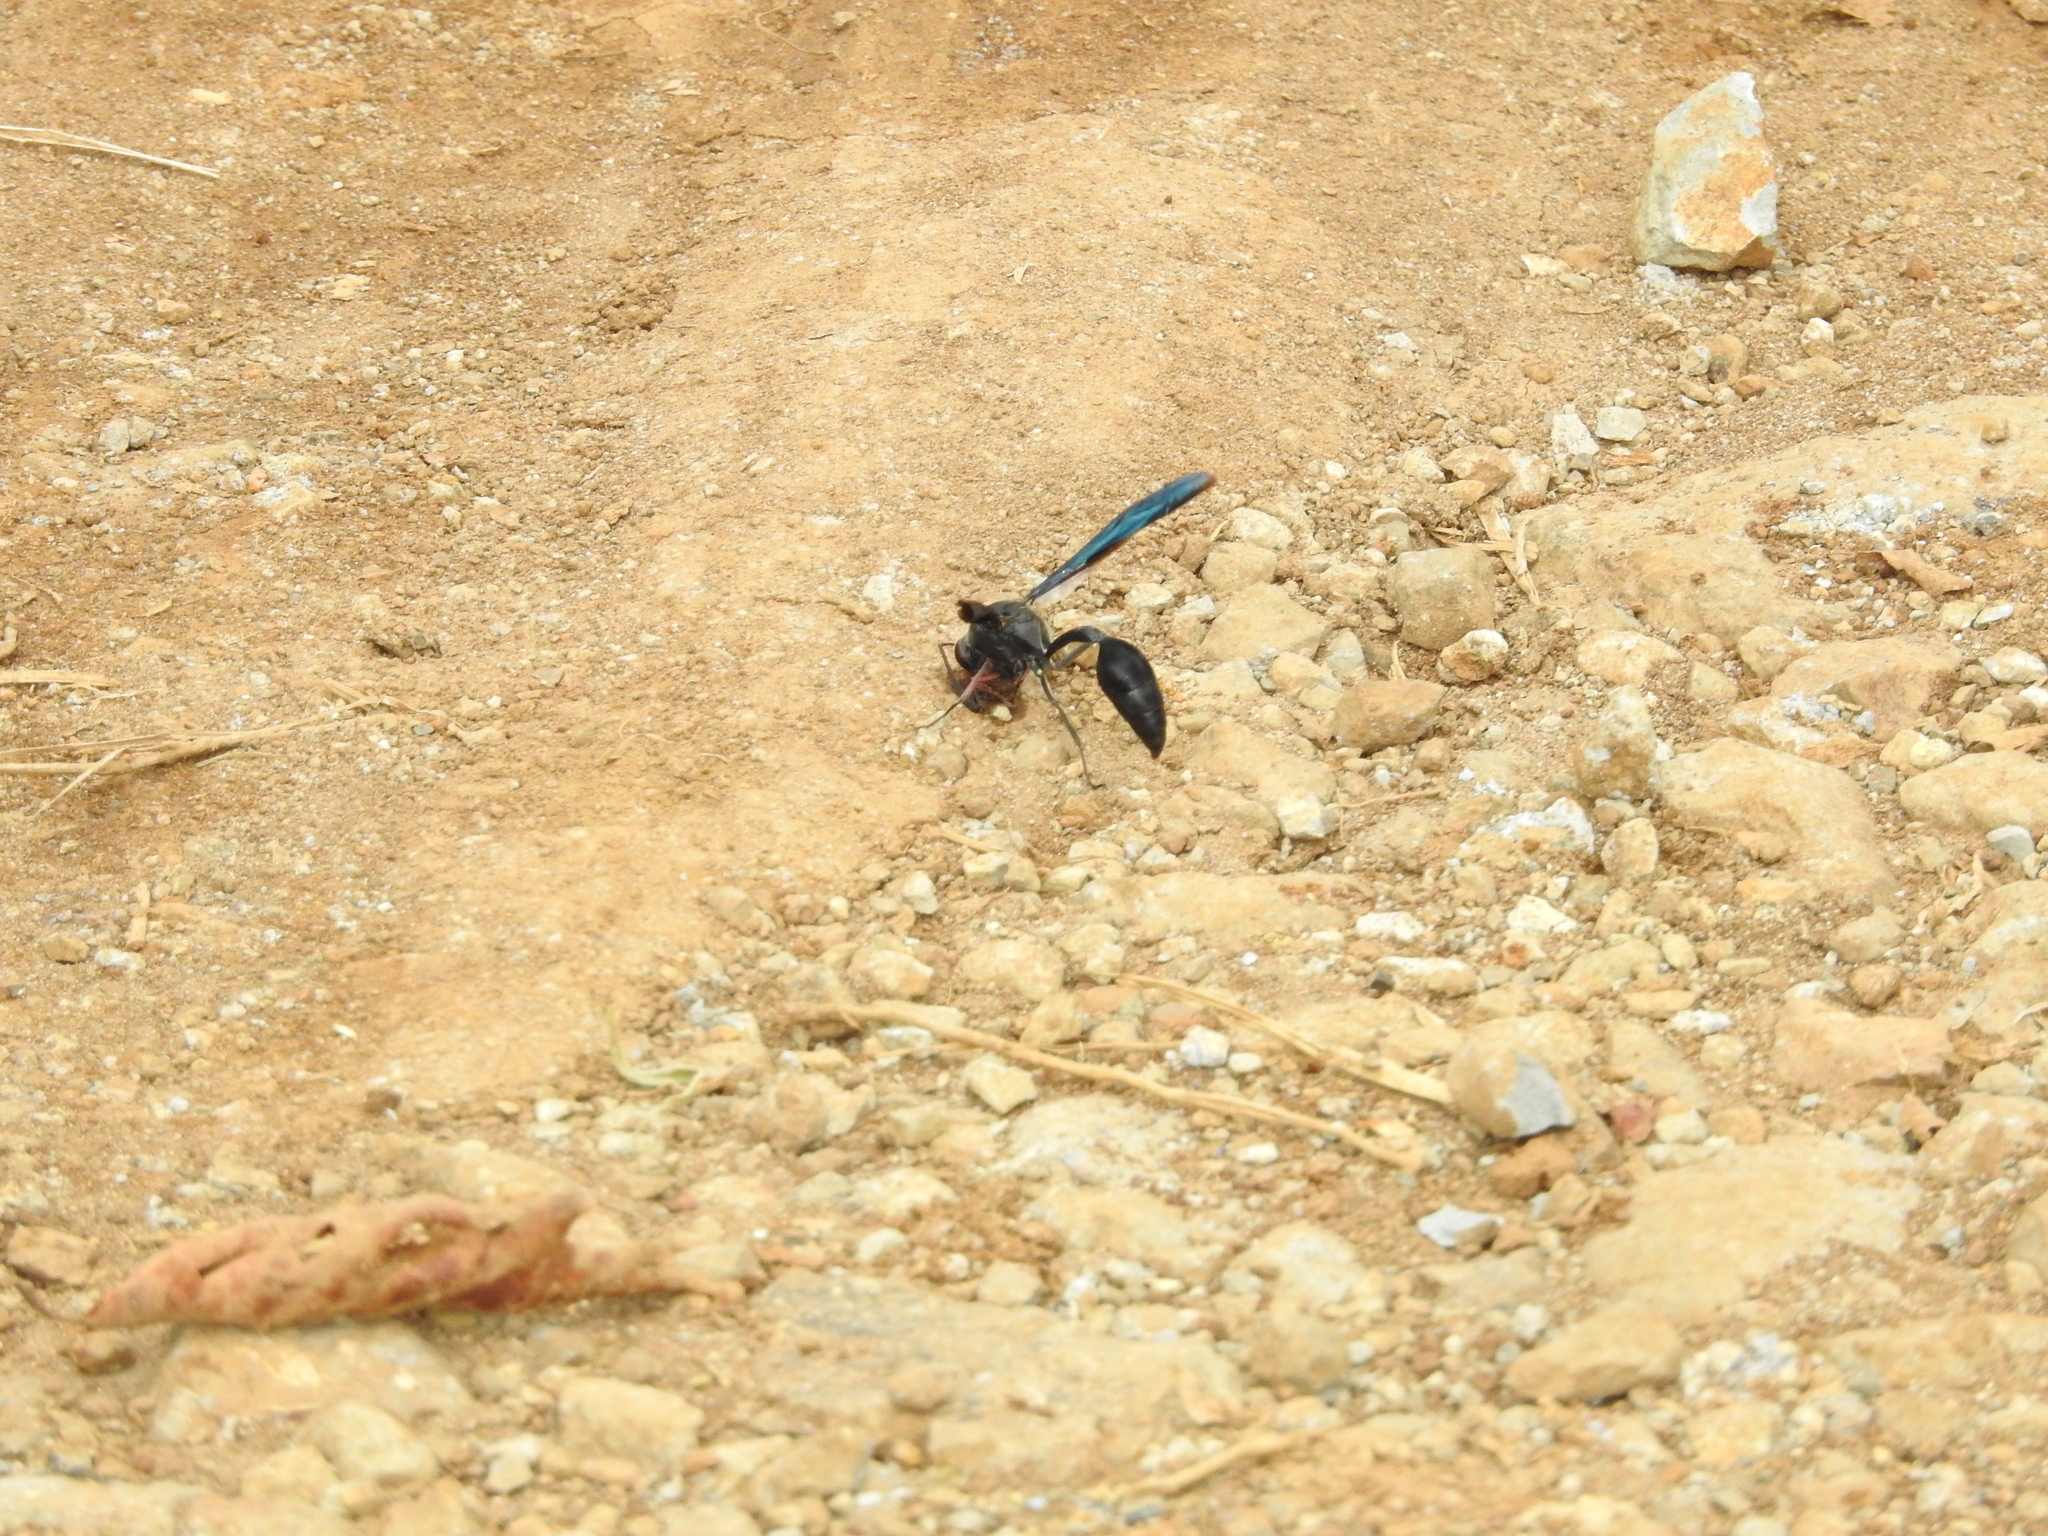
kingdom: Animalia
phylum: Arthropoda
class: Insecta
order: Hymenoptera
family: Eumenidae
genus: Delta
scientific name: Delta bonellii
